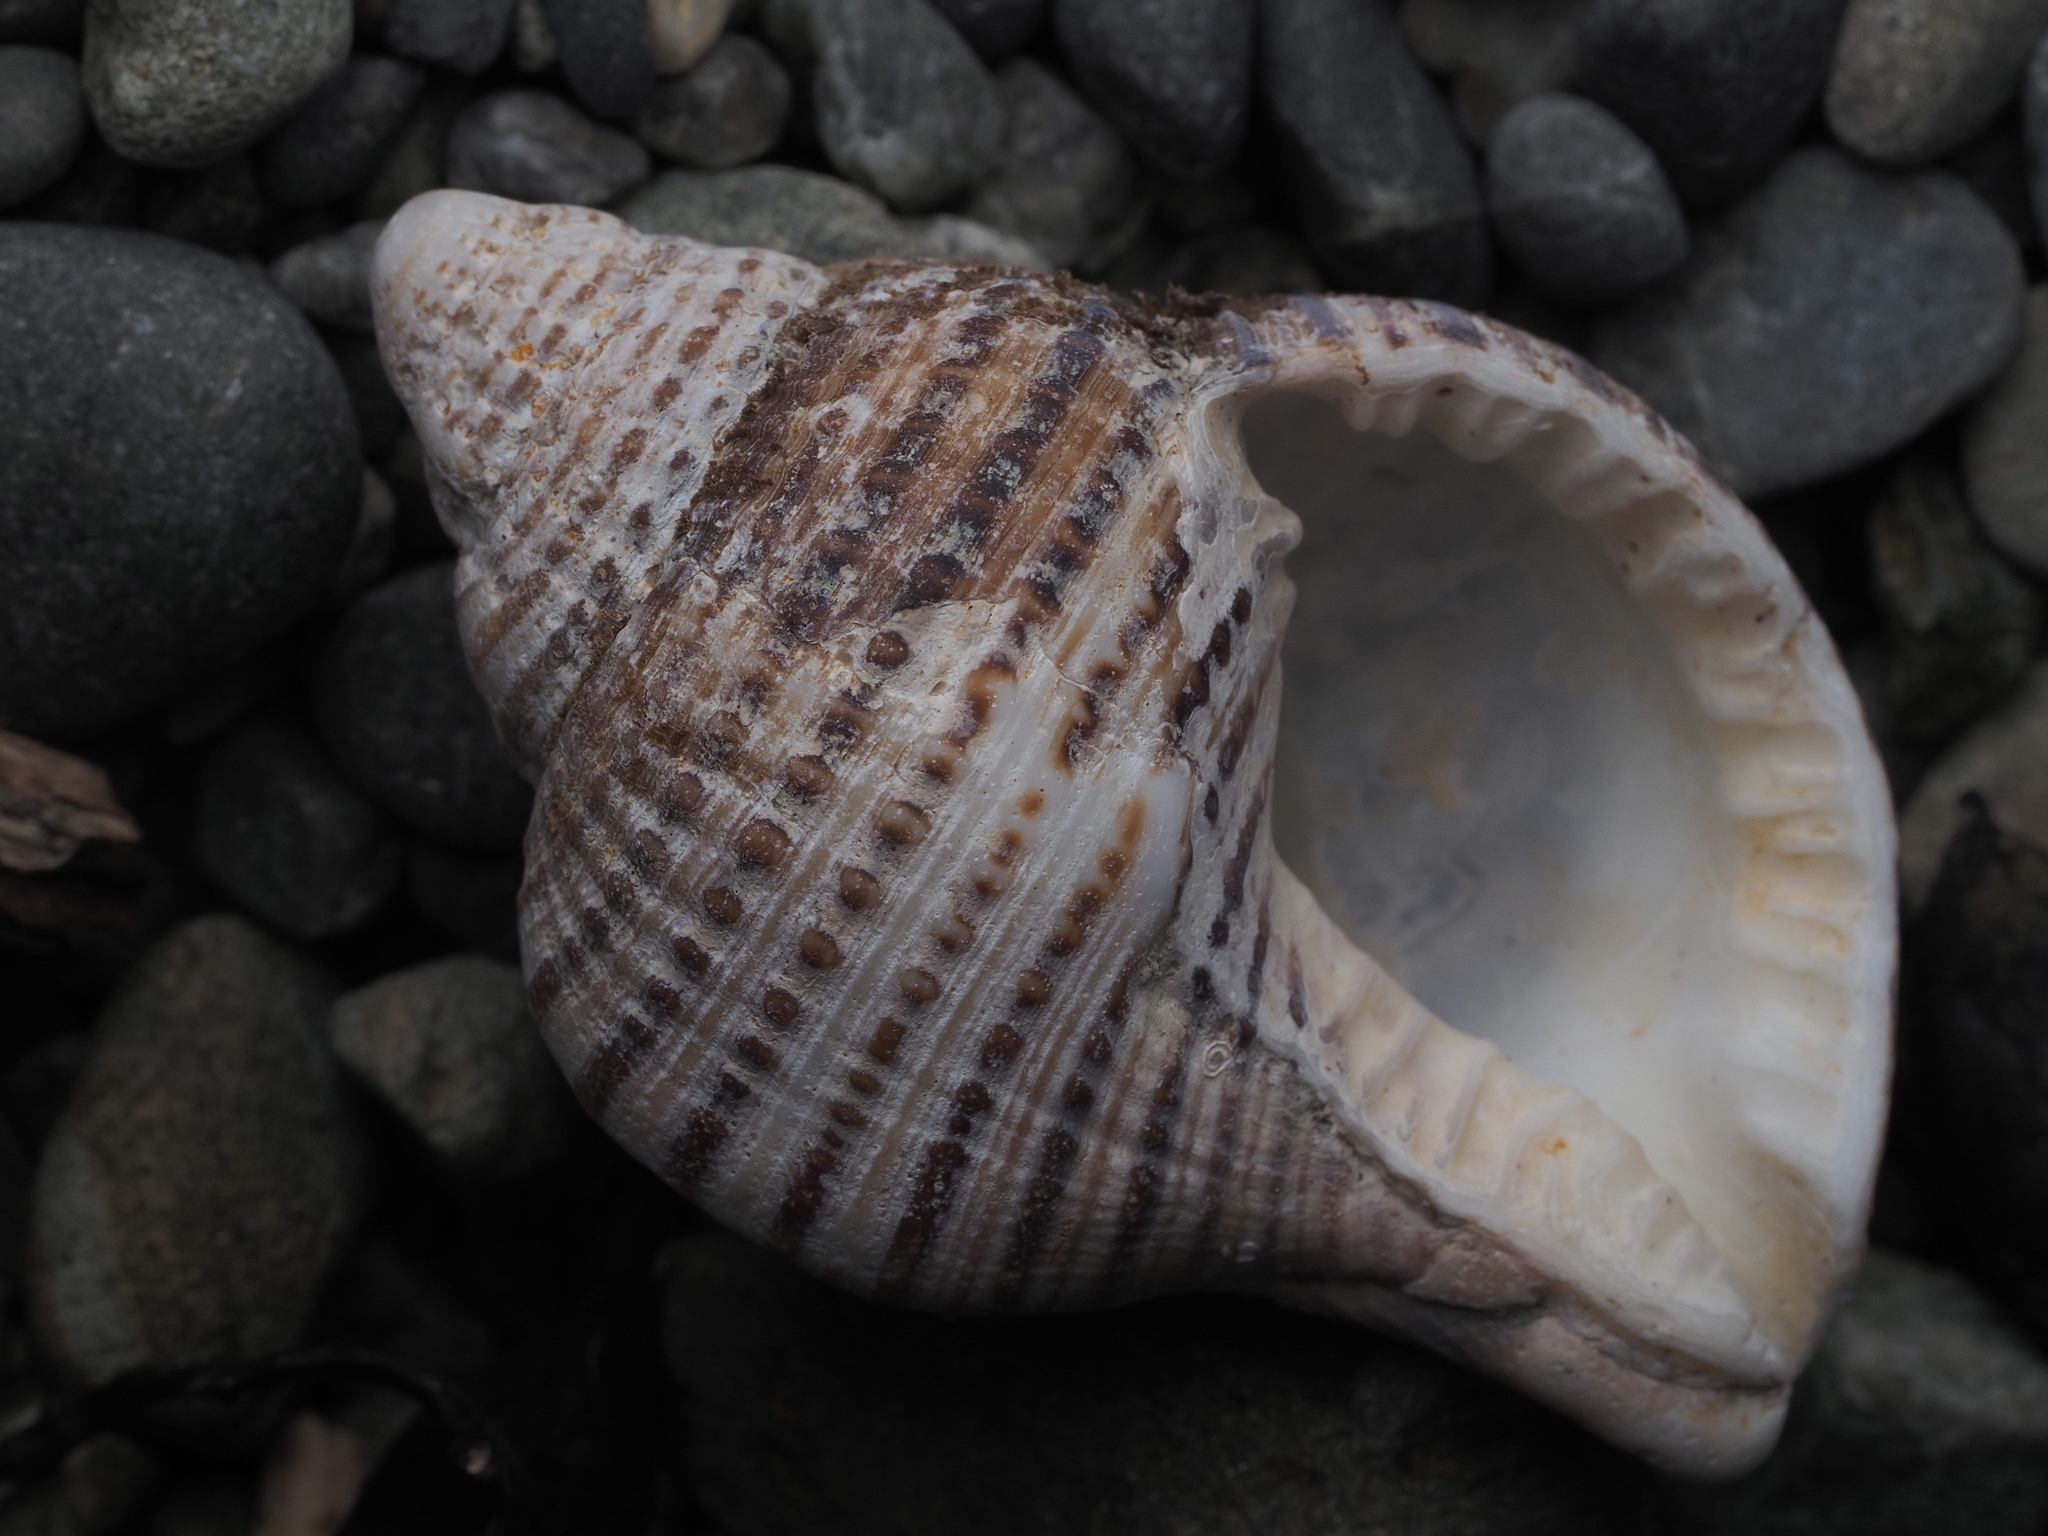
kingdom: Animalia
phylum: Mollusca
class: Gastropoda
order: Littorinimorpha
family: Cymatiidae
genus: Argobuccinum
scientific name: Argobuccinum pustulosum
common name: Pustular triton
